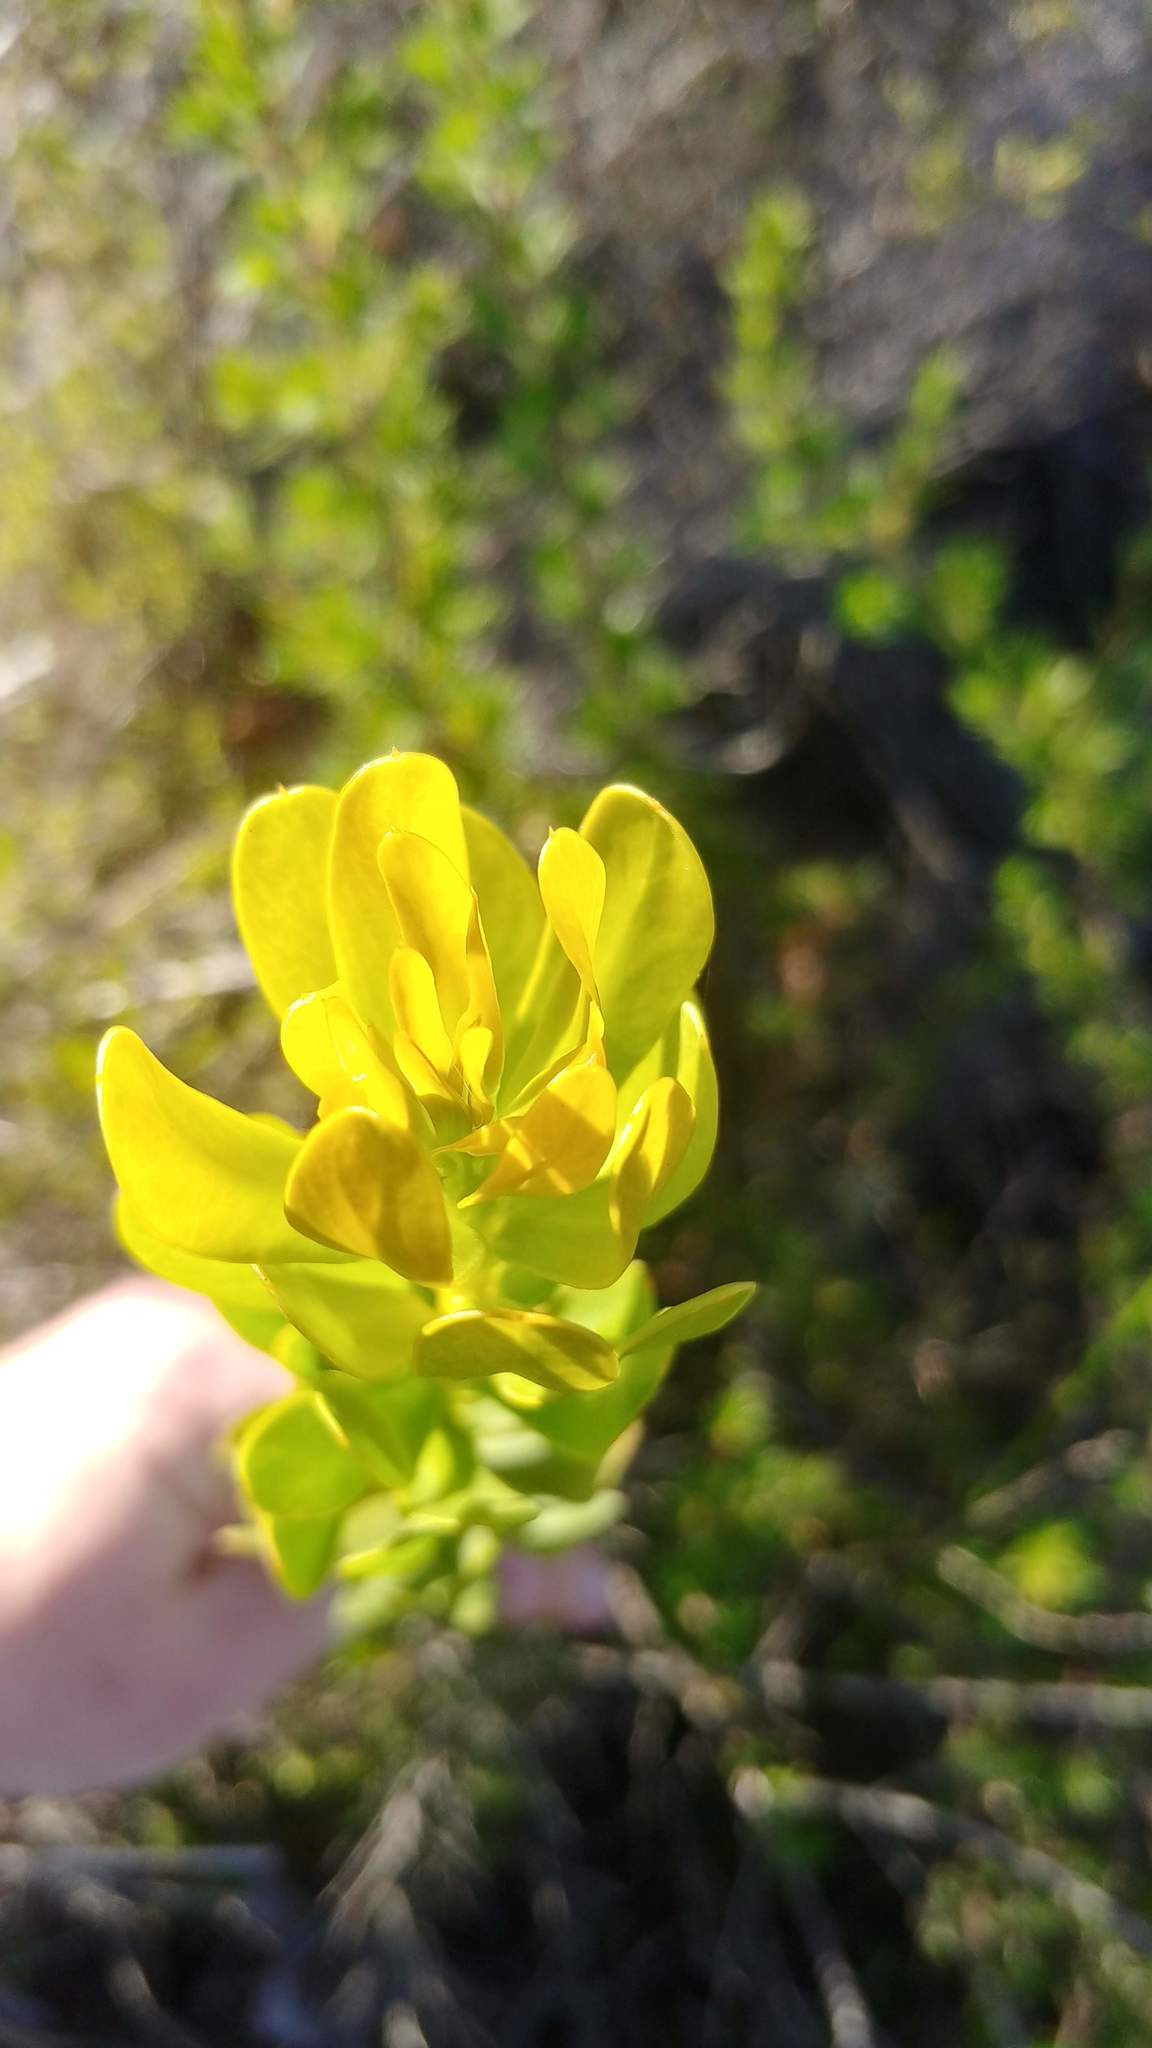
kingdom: Plantae
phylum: Tracheophyta
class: Magnoliopsida
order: Proteales
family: Proteaceae
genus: Aulax
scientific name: Aulax umbellata
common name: Broad-leaf featherbush
